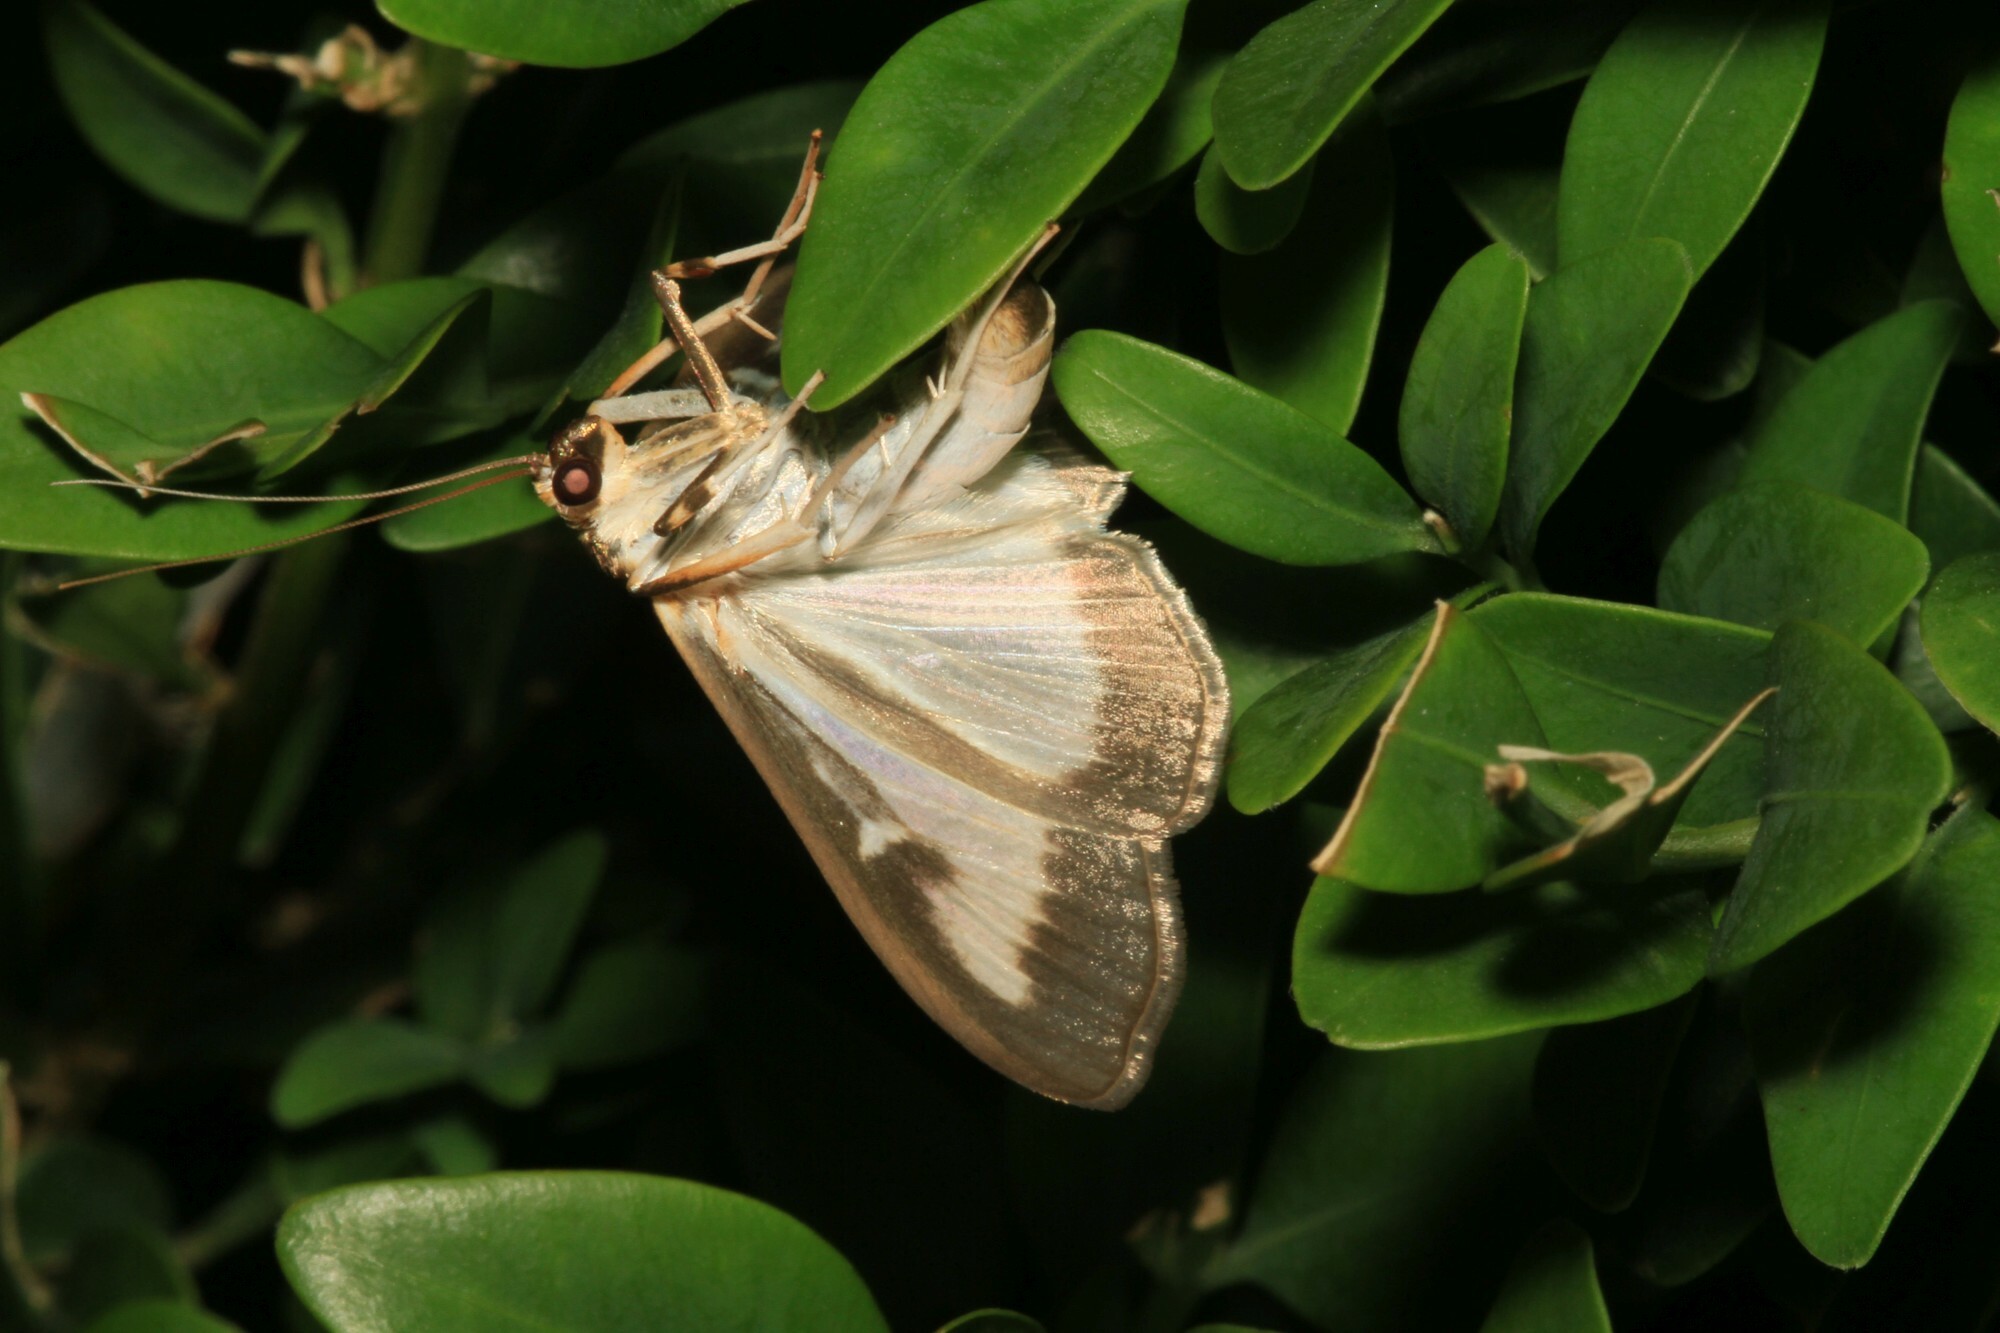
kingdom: Animalia
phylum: Arthropoda
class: Insecta
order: Lepidoptera
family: Crambidae
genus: Cydalima
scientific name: Cydalima perspectalis
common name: Box tree moth
